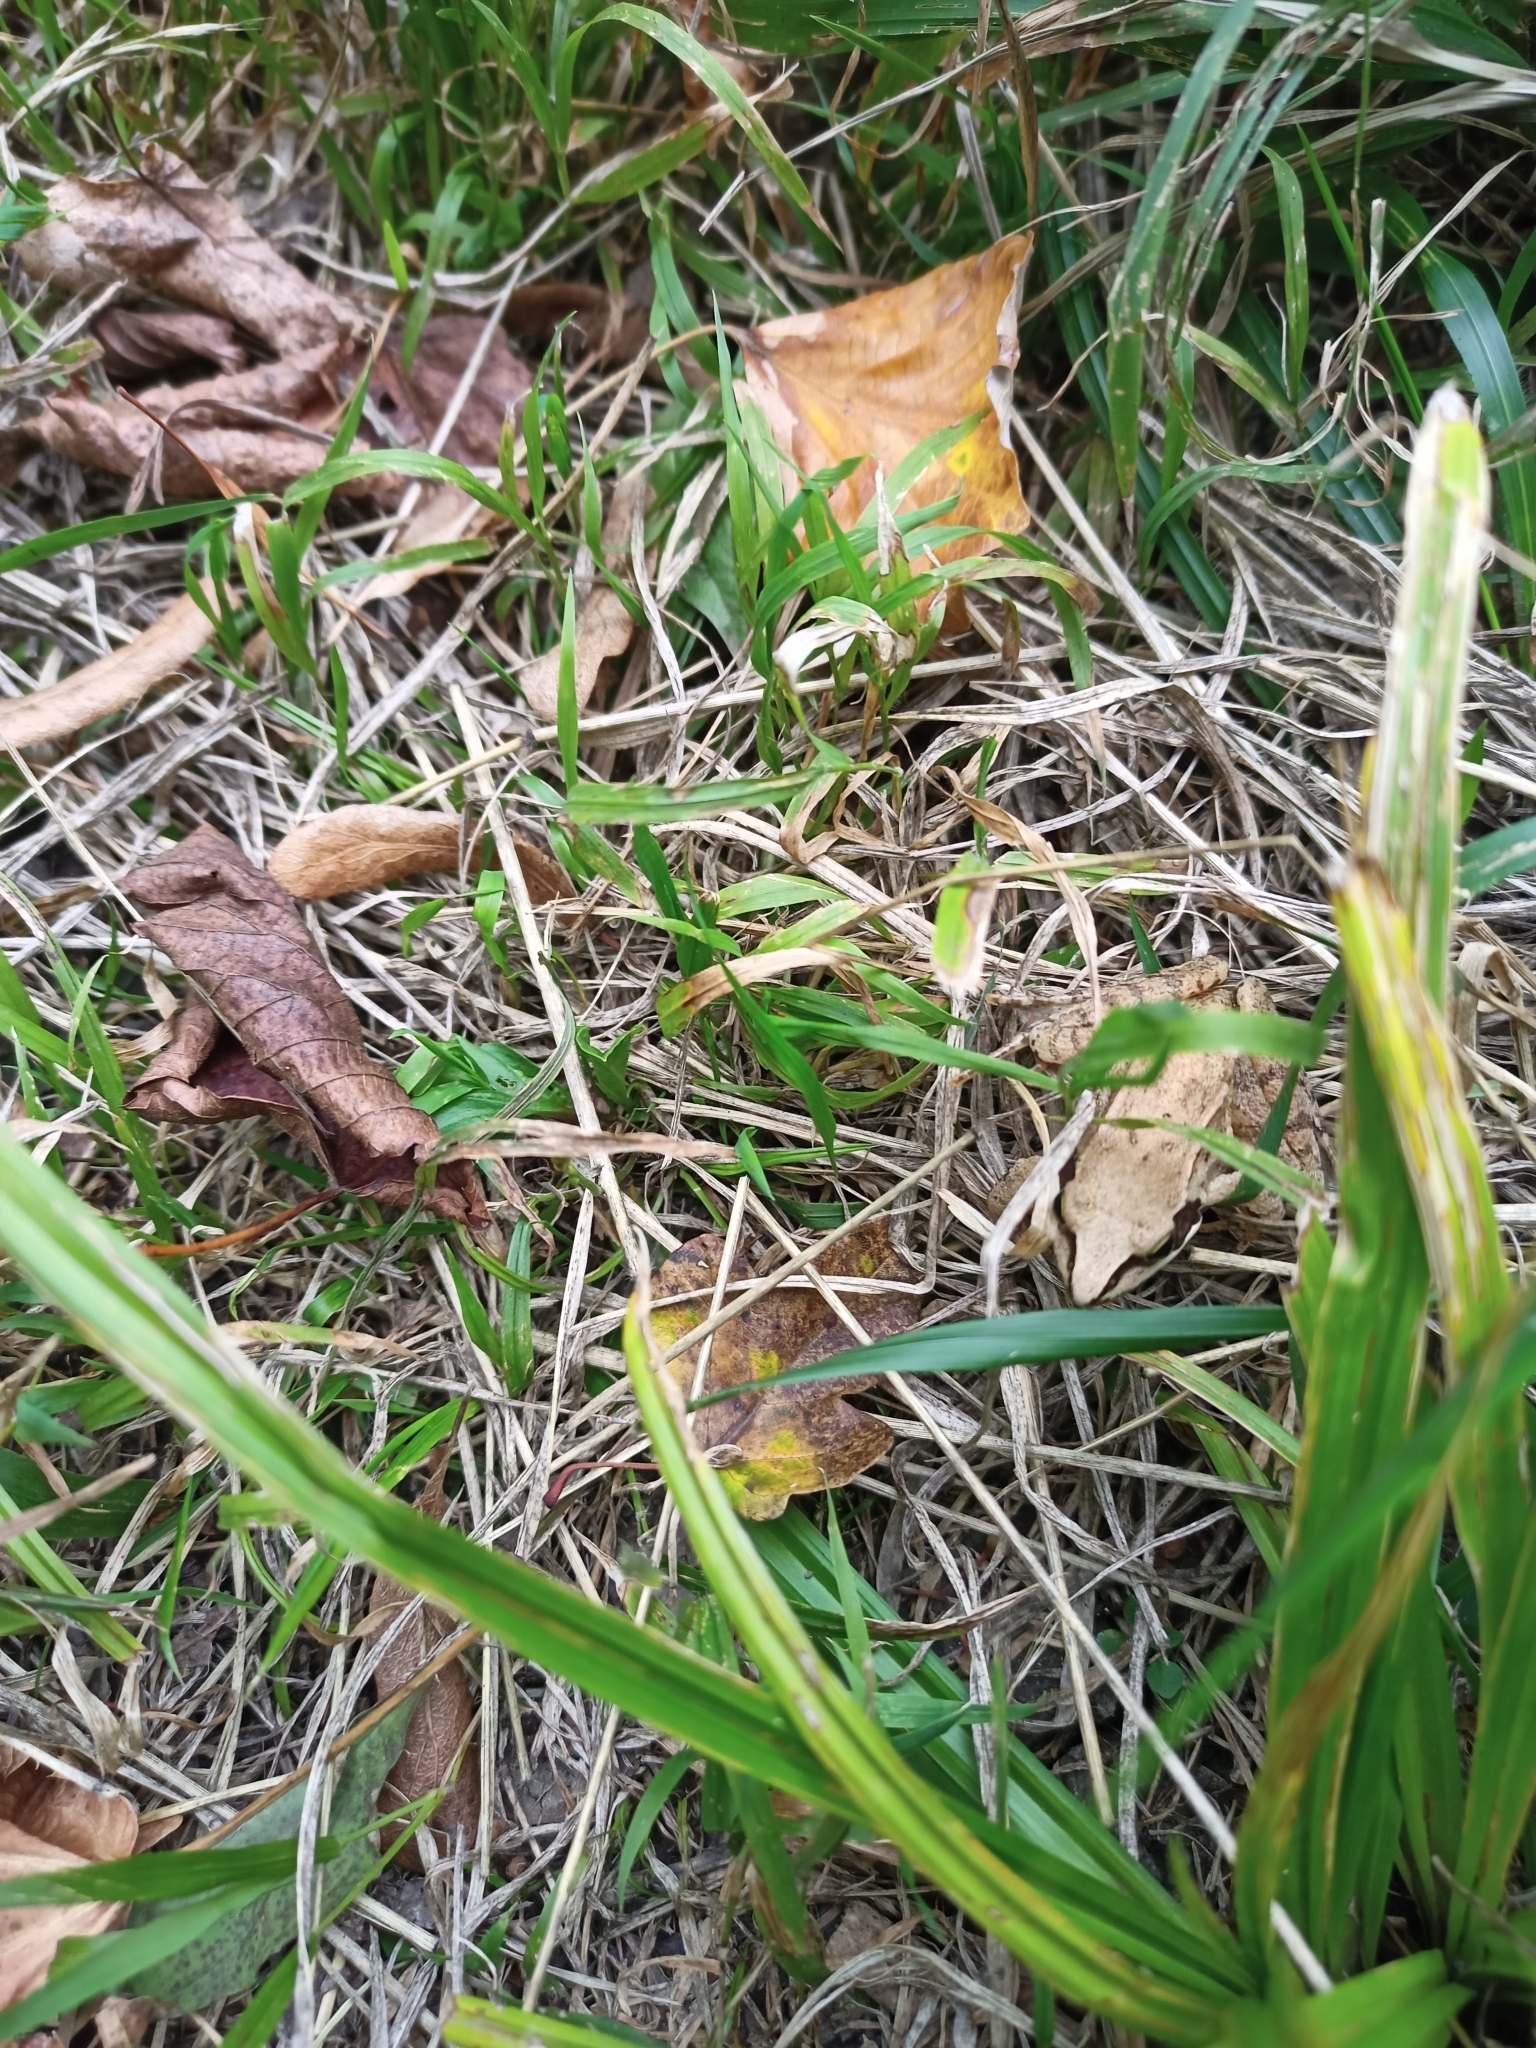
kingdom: Animalia
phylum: Chordata
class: Amphibia
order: Anura
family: Ranidae
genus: Rana
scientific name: Rana dalmatina
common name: Agile frog
